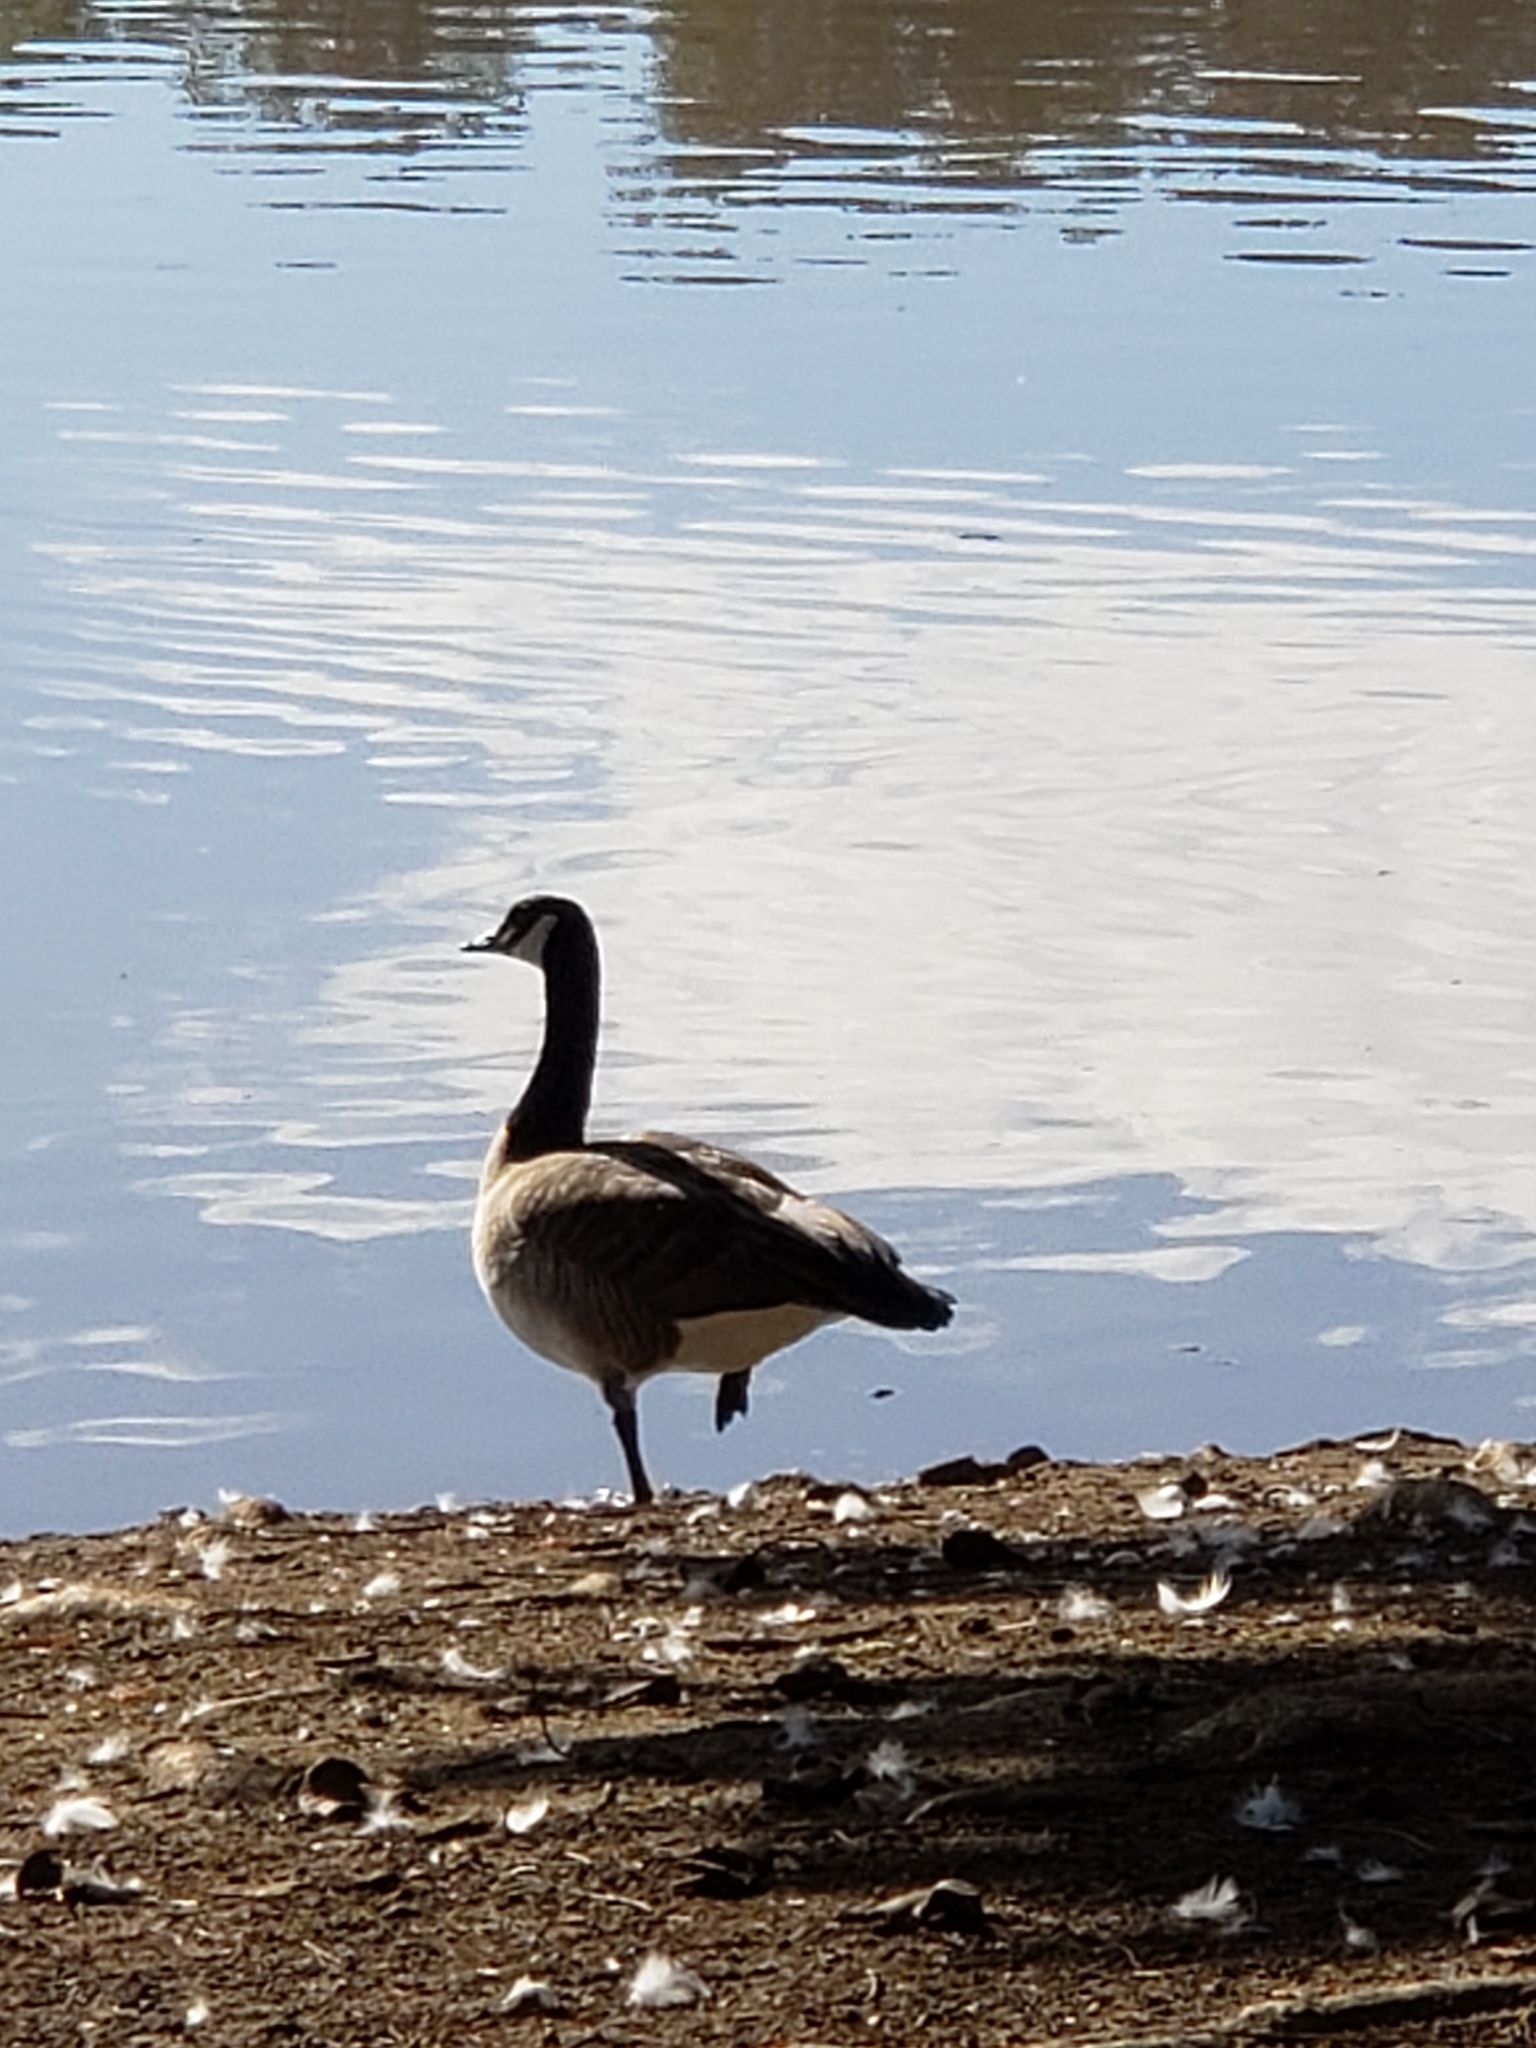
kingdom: Animalia
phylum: Chordata
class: Aves
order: Anseriformes
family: Anatidae
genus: Branta
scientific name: Branta canadensis
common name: Canada goose
